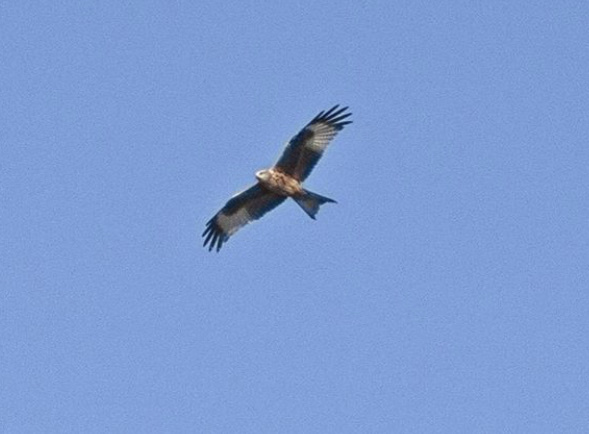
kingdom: Animalia
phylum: Chordata
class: Aves
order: Accipitriformes
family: Accipitridae
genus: Milvus
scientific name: Milvus milvus
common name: Red kite
